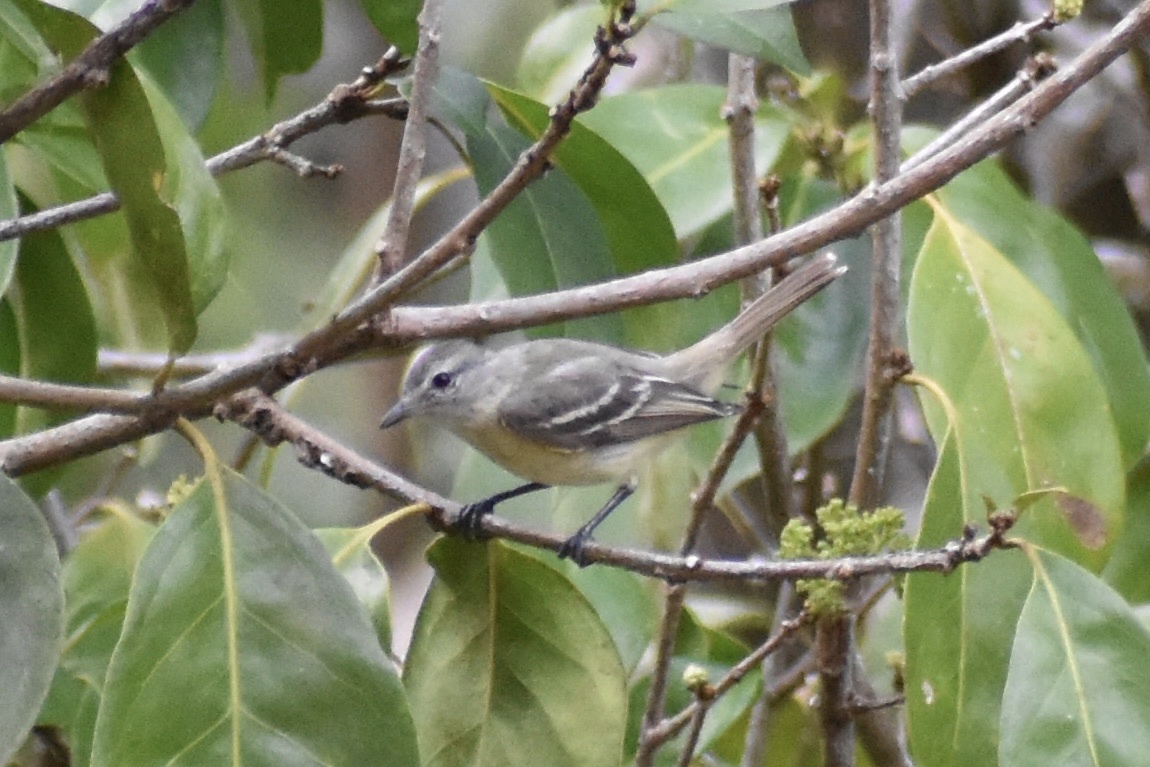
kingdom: Animalia
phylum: Chordata
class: Aves
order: Passeriformes
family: Tyrannidae
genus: Camptostoma
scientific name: Camptostoma obsoletum
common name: Southern beardless-tyrannulet
